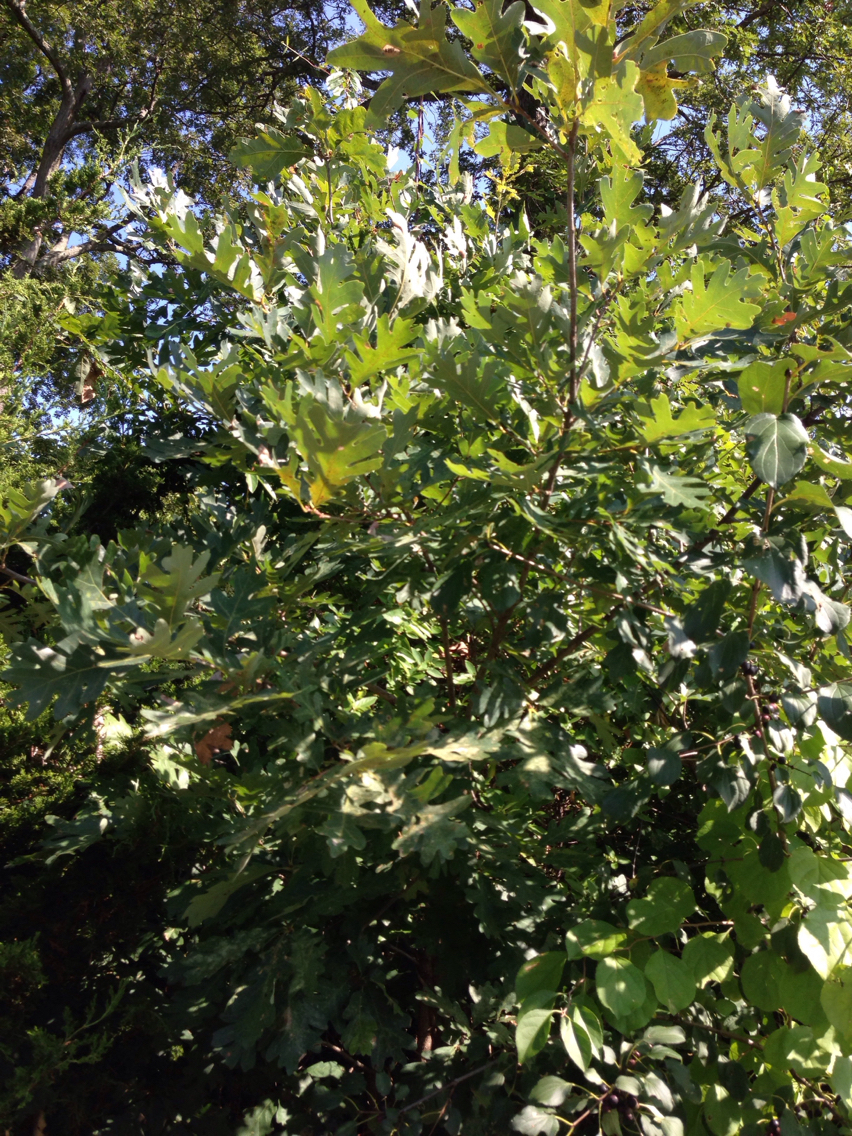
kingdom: Plantae
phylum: Tracheophyta
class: Magnoliopsida
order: Fagales
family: Fagaceae
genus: Quercus
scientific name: Quercus alba
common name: White oak
